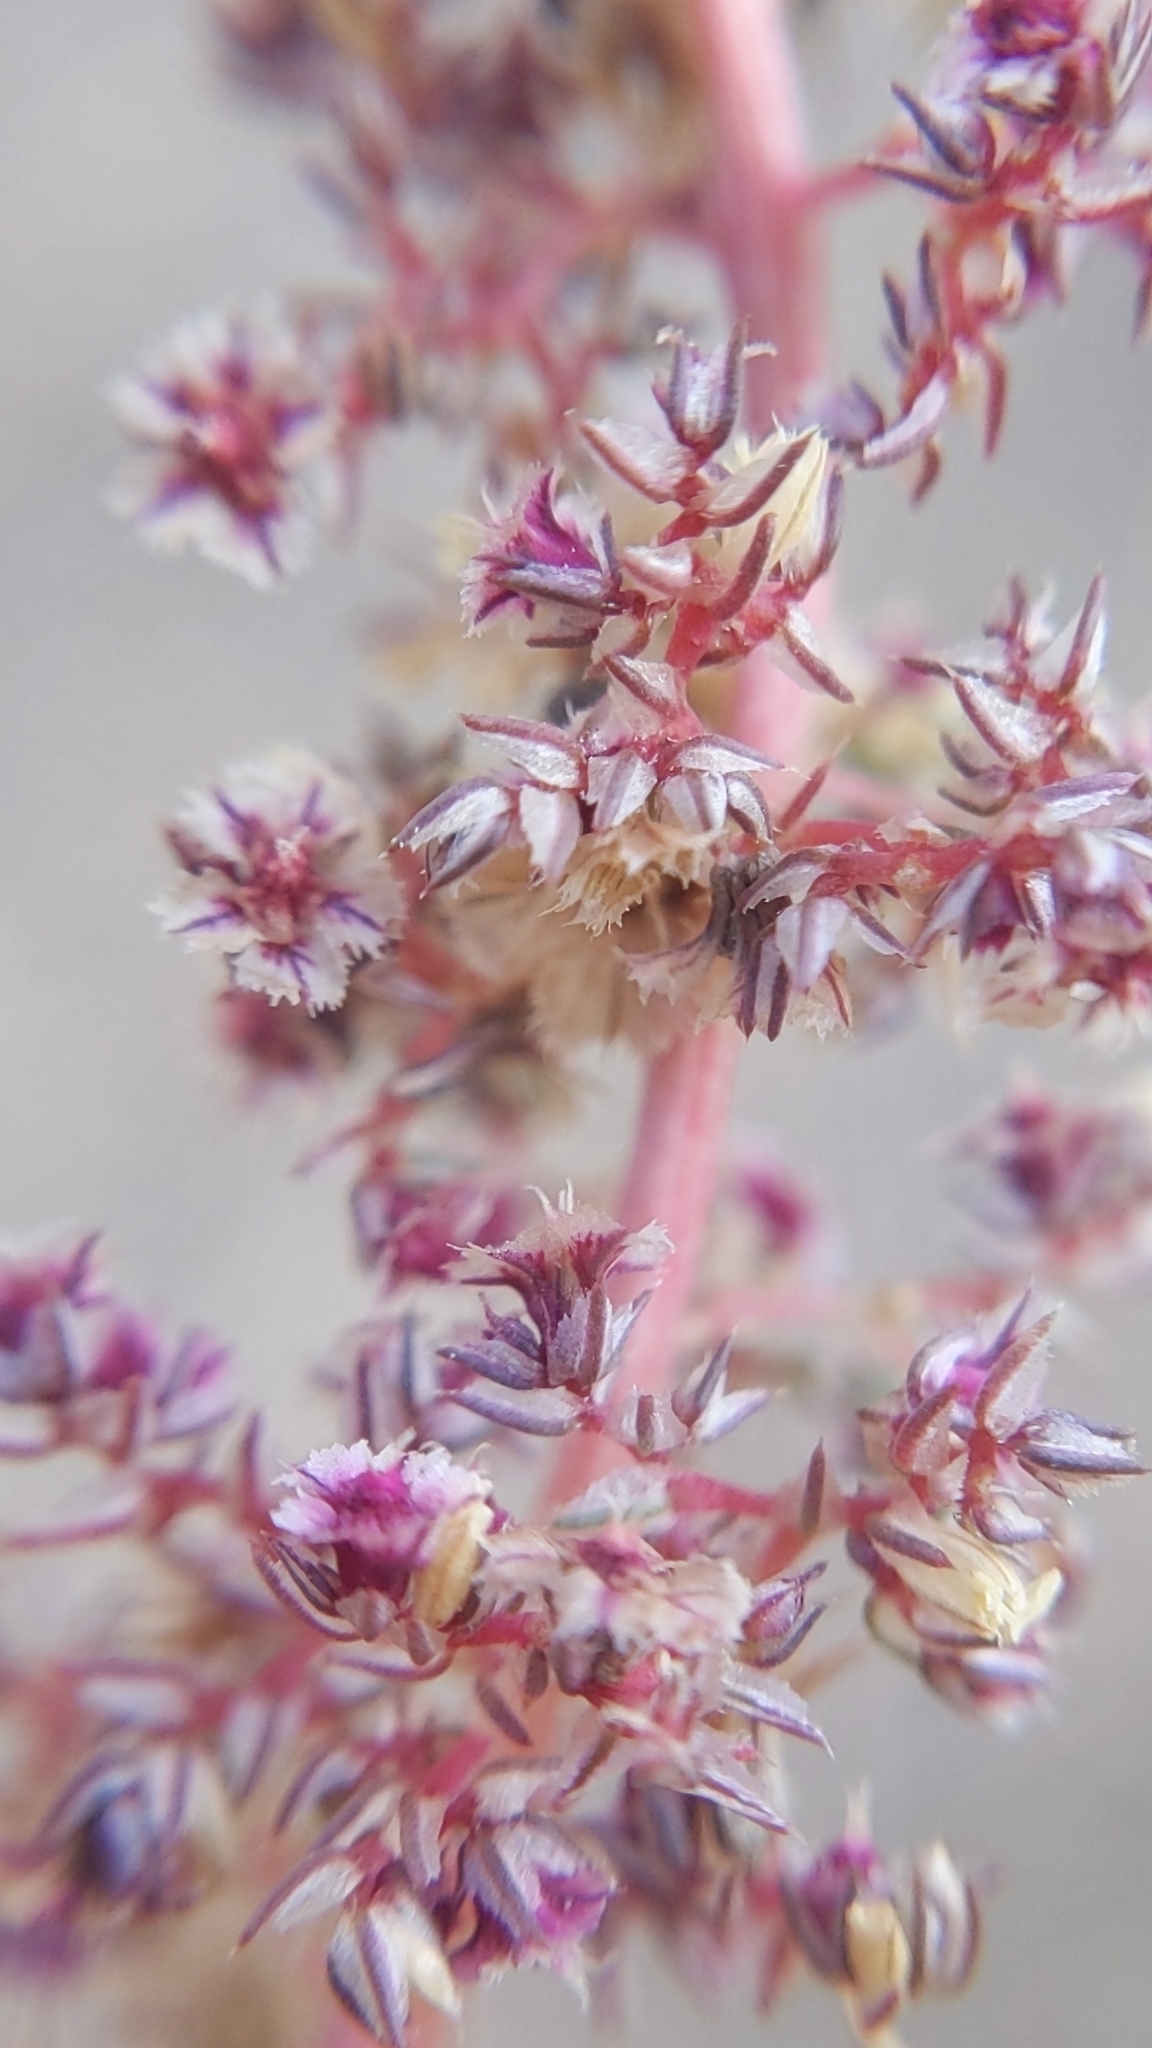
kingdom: Plantae
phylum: Tracheophyta
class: Magnoliopsida
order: Caryophyllales
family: Amaranthaceae
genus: Amaranthus
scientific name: Amaranthus fimbriatus
